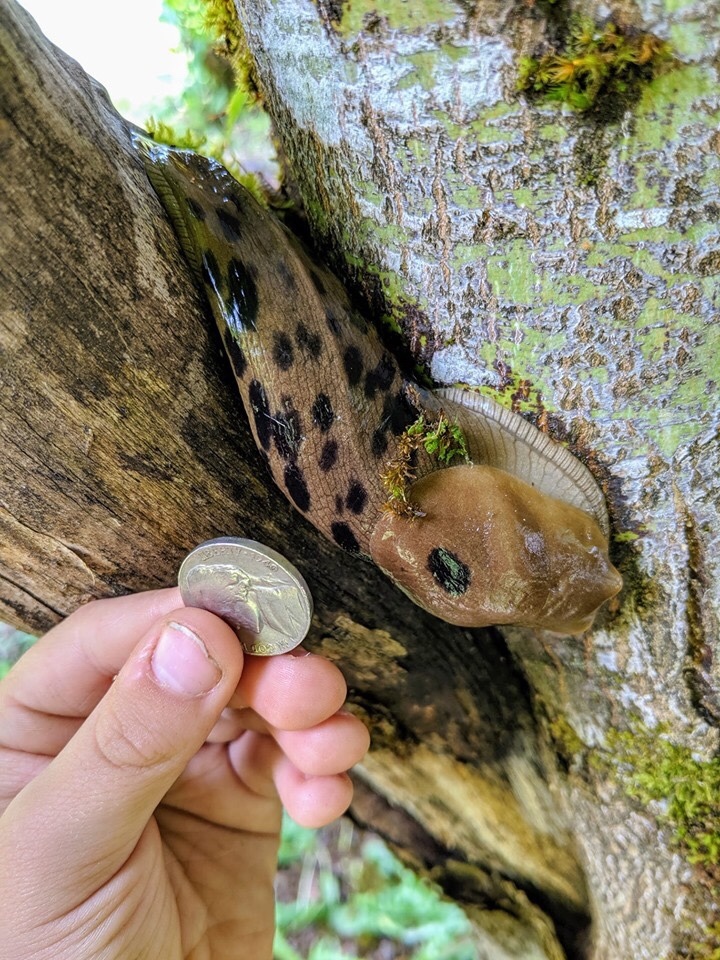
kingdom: Animalia
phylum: Mollusca
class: Gastropoda
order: Stylommatophora
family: Ariolimacidae
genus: Ariolimax
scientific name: Ariolimax columbianus
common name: Pacific banana slug
